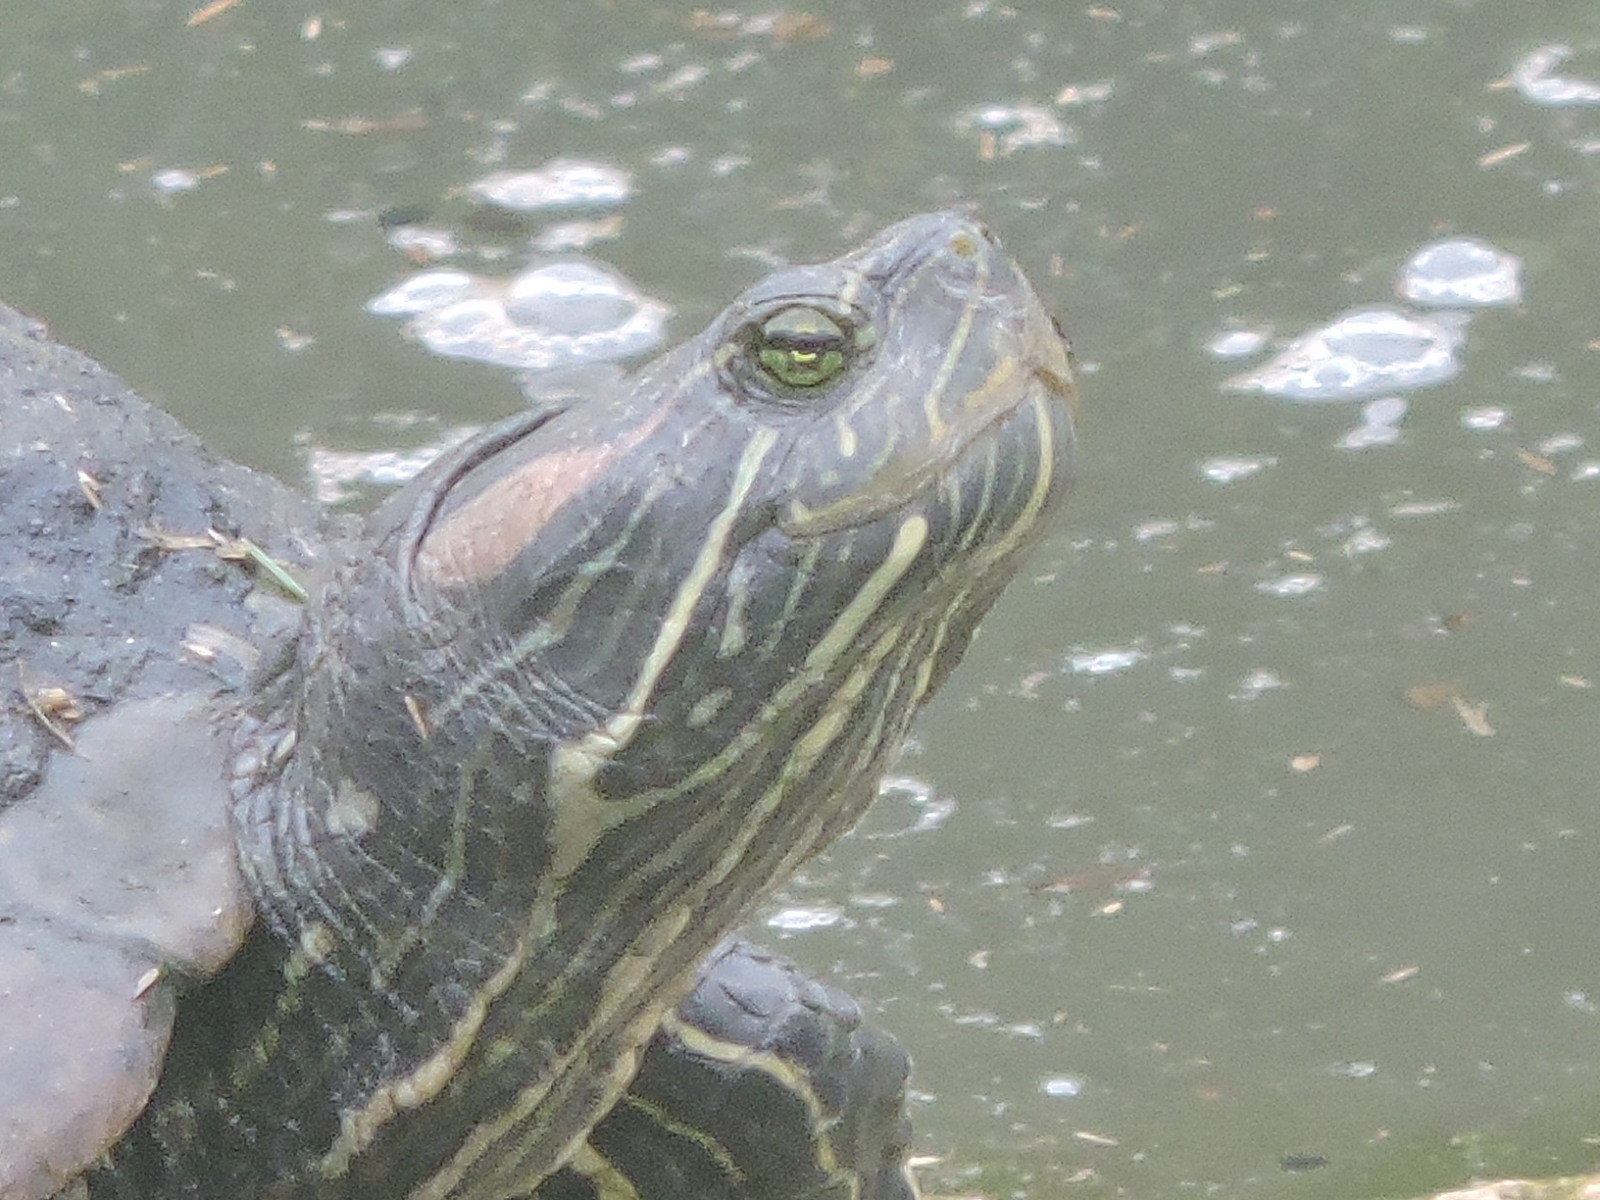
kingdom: Animalia
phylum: Chordata
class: Testudines
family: Emydidae
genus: Trachemys
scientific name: Trachemys scripta
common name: Slider
